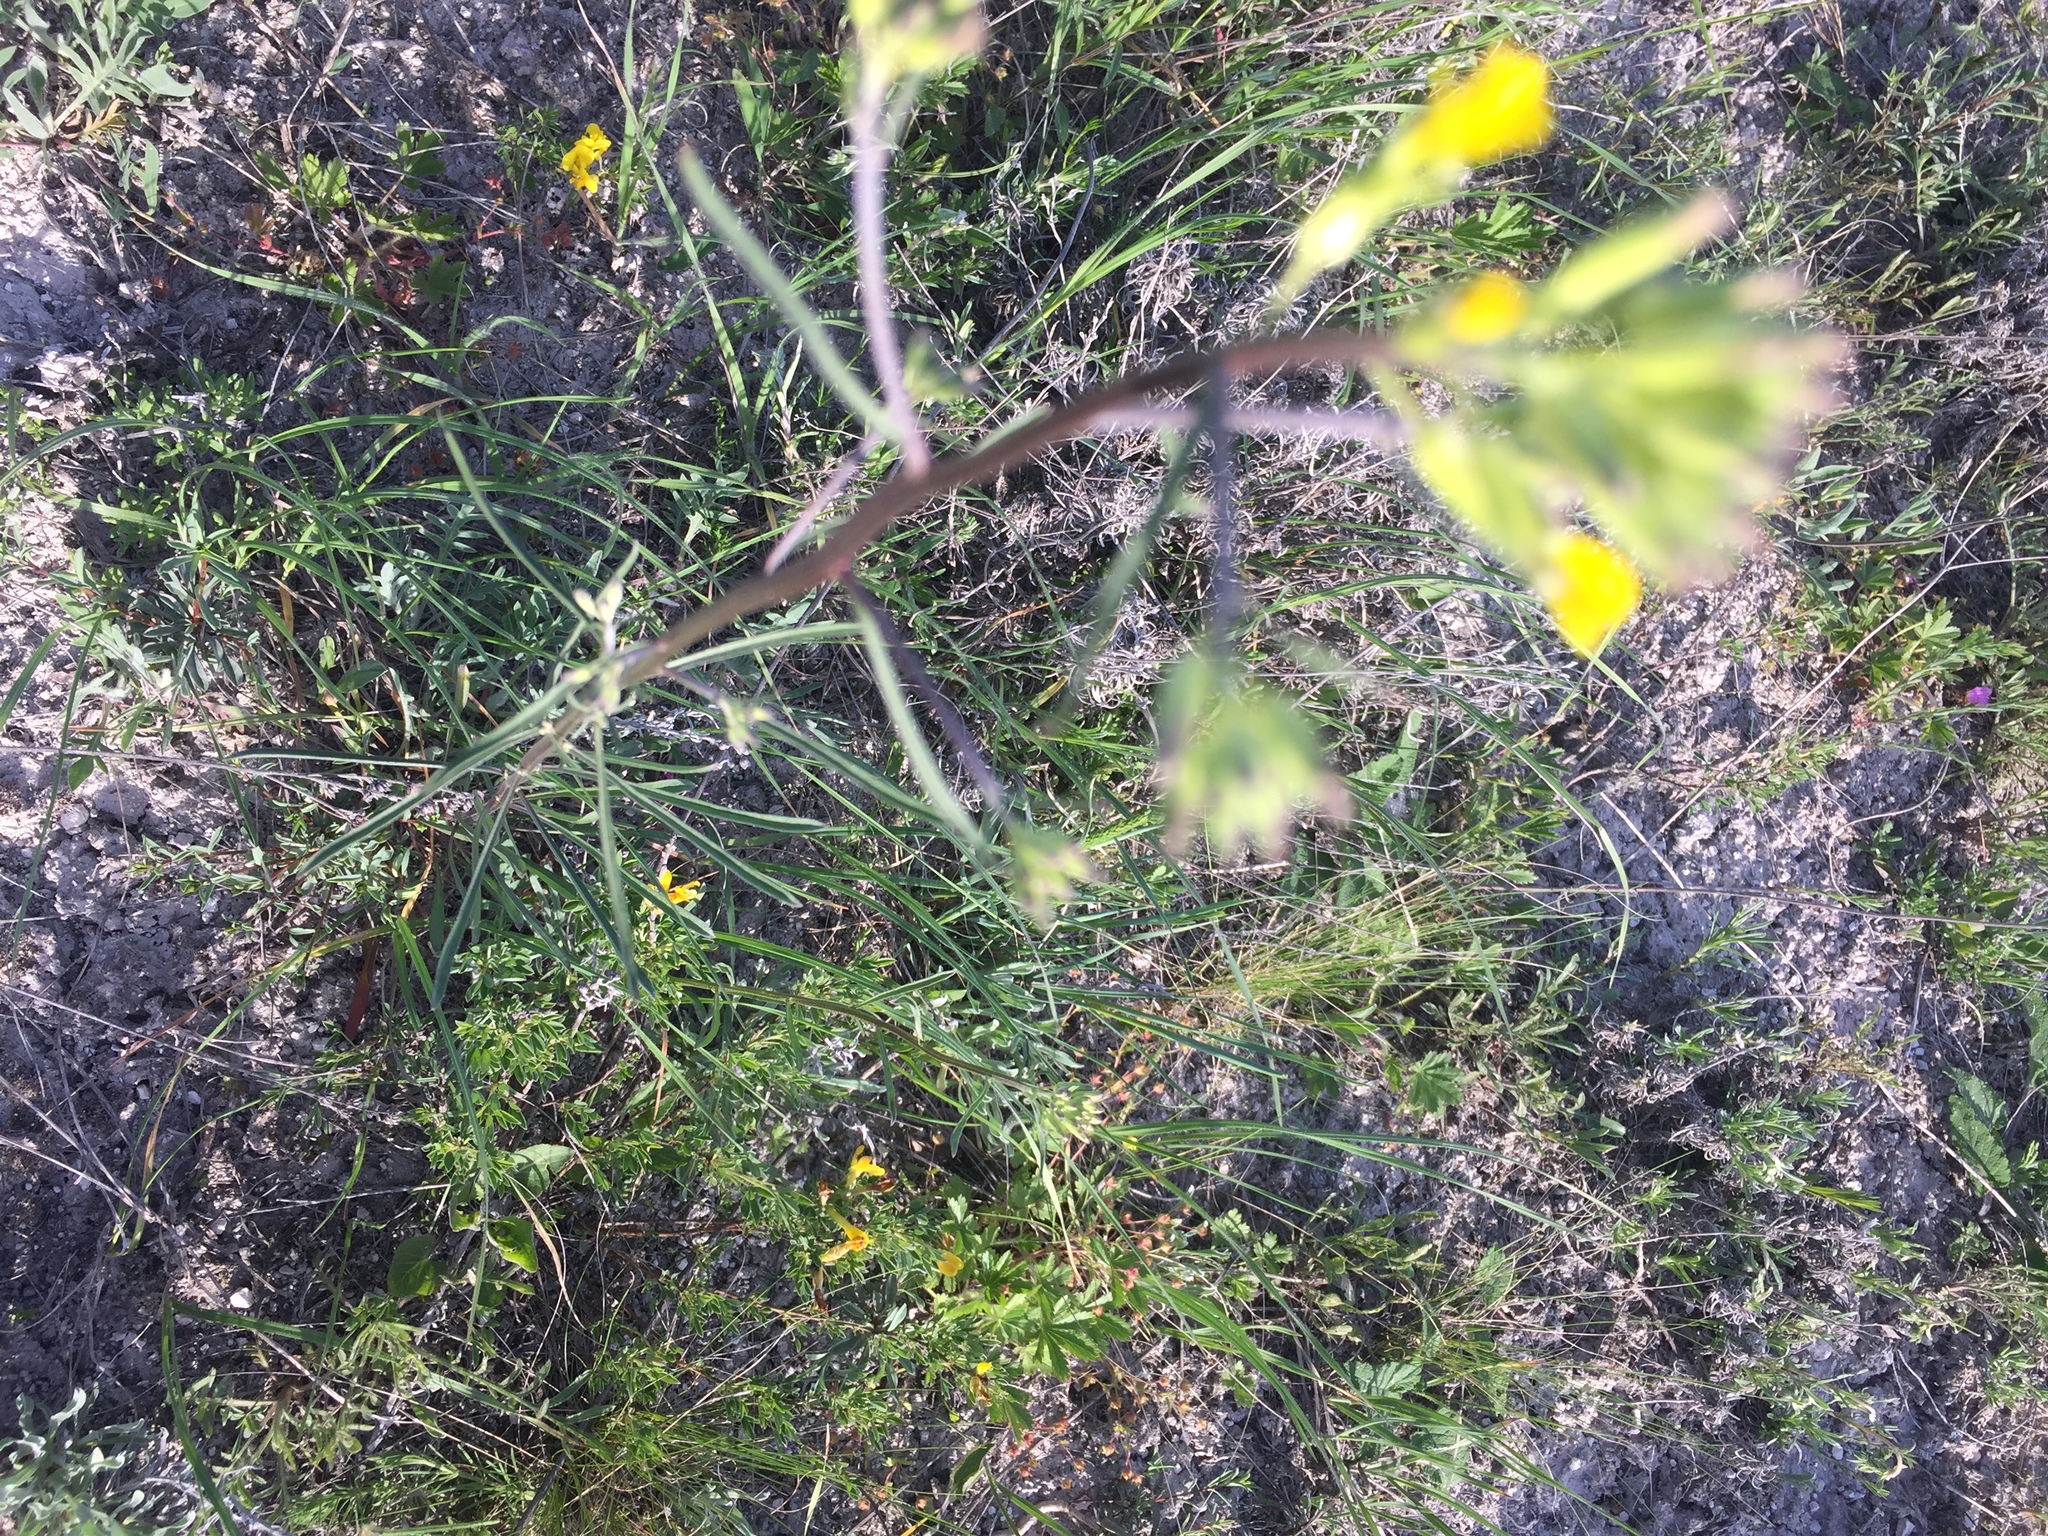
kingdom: Plantae
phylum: Tracheophyta
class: Magnoliopsida
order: Brassicales
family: Brassicaceae
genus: Erysimum
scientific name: Erysimum diffusum
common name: Diffuse wallflower
